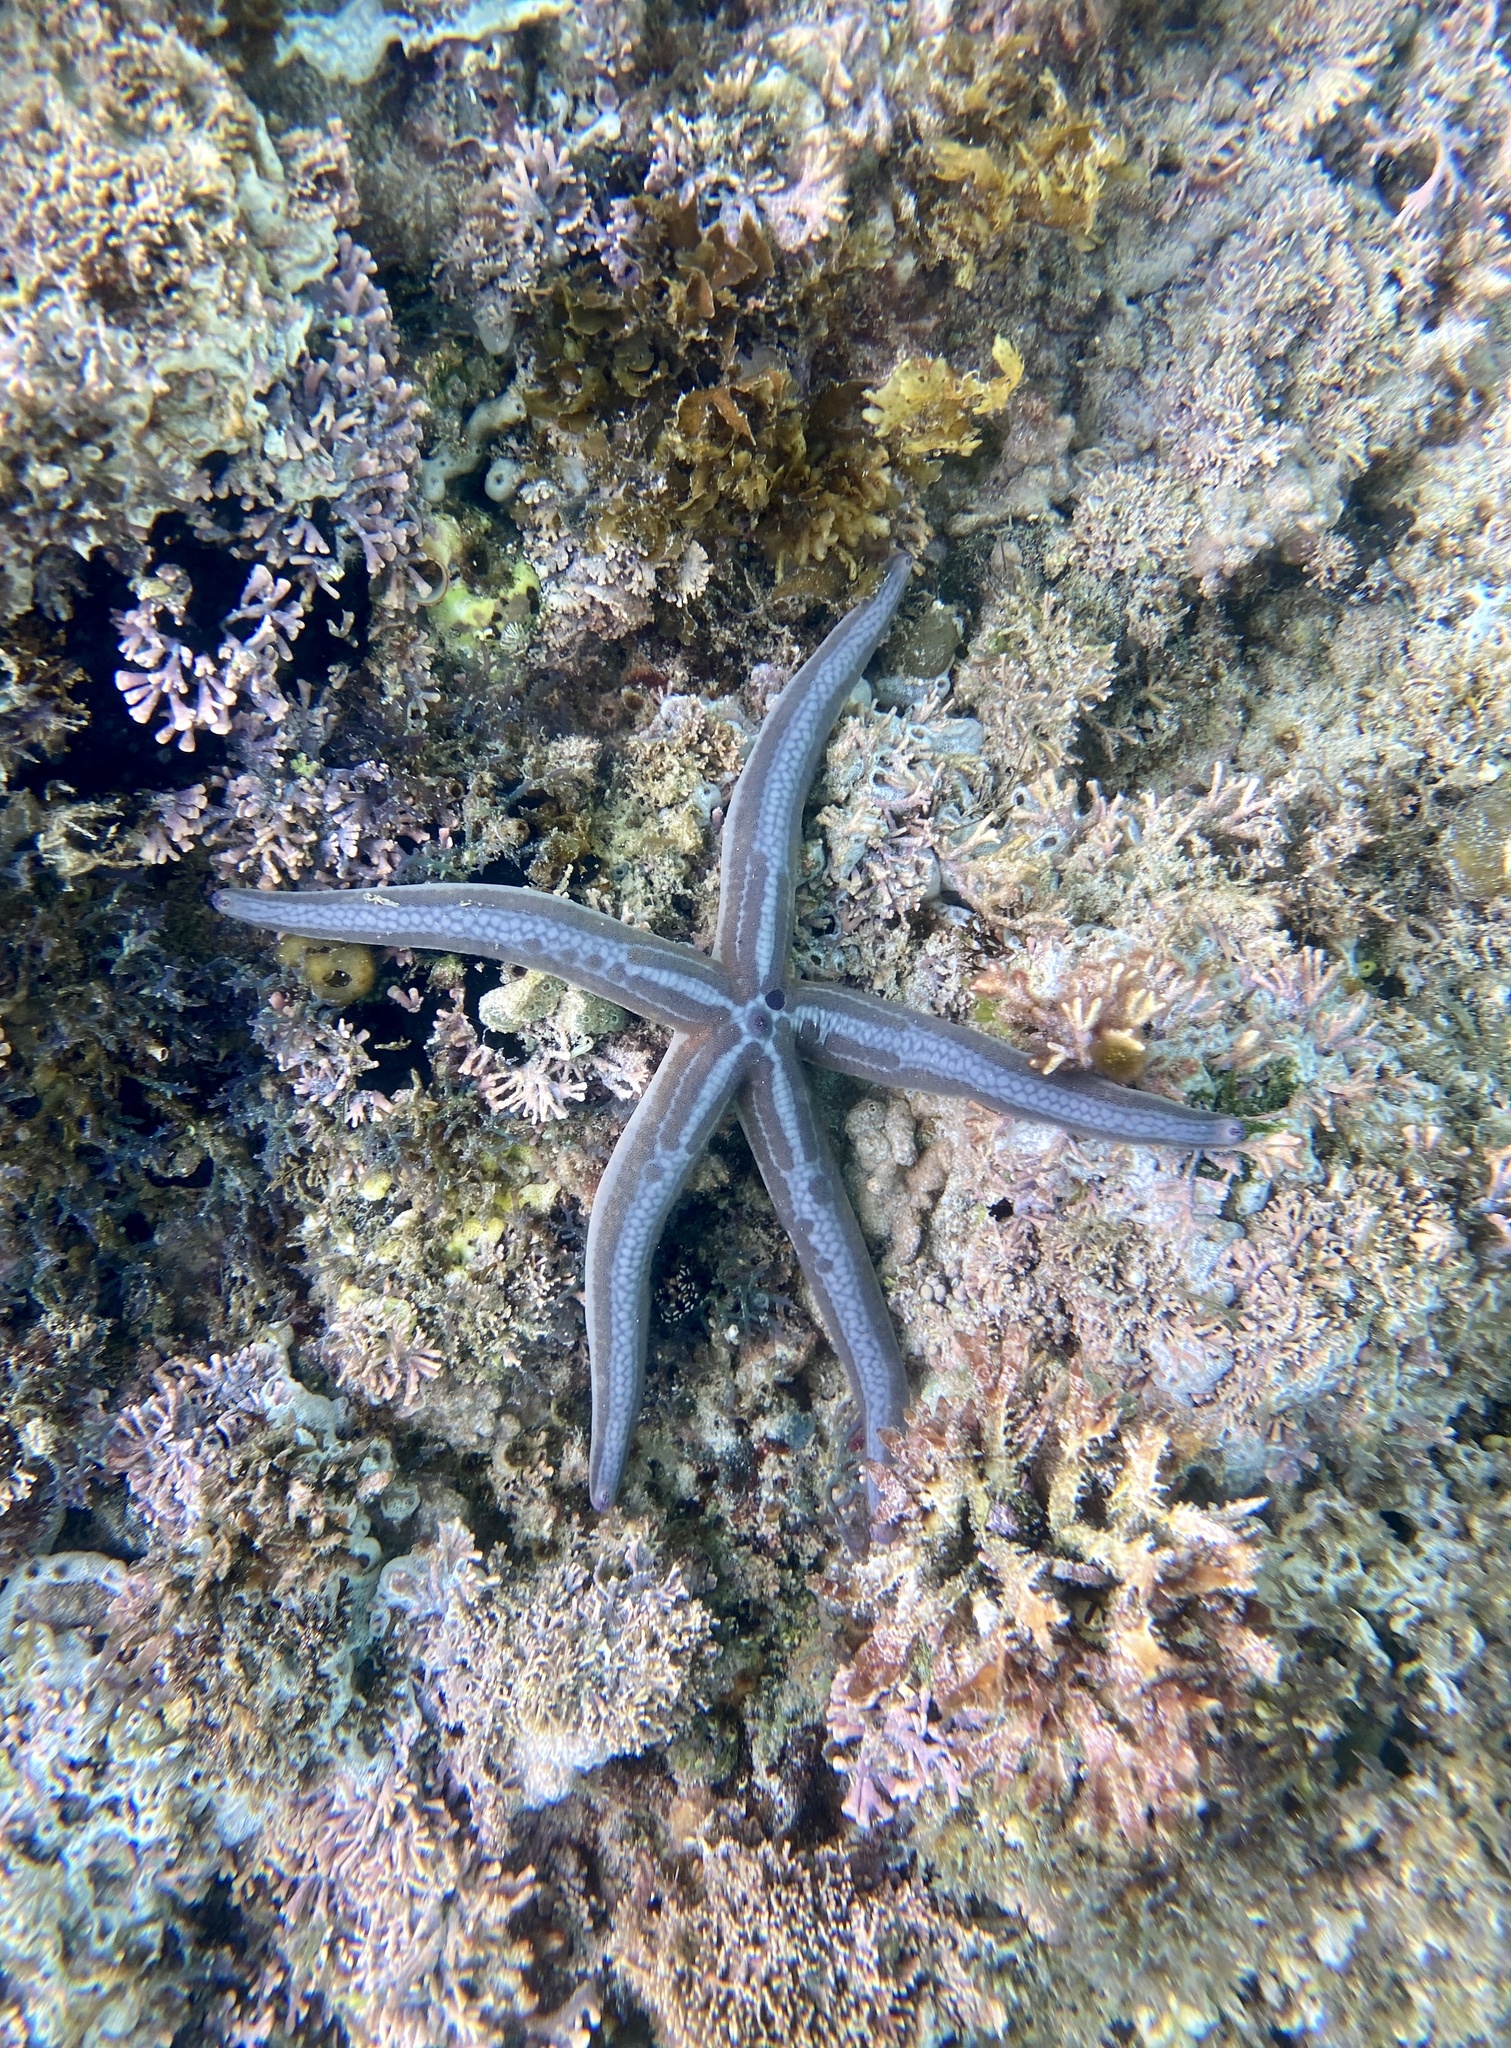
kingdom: Animalia
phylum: Echinodermata
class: Asteroidea
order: Valvatida
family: Ophidiasteridae
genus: Phataria
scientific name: Phataria unifascialis
